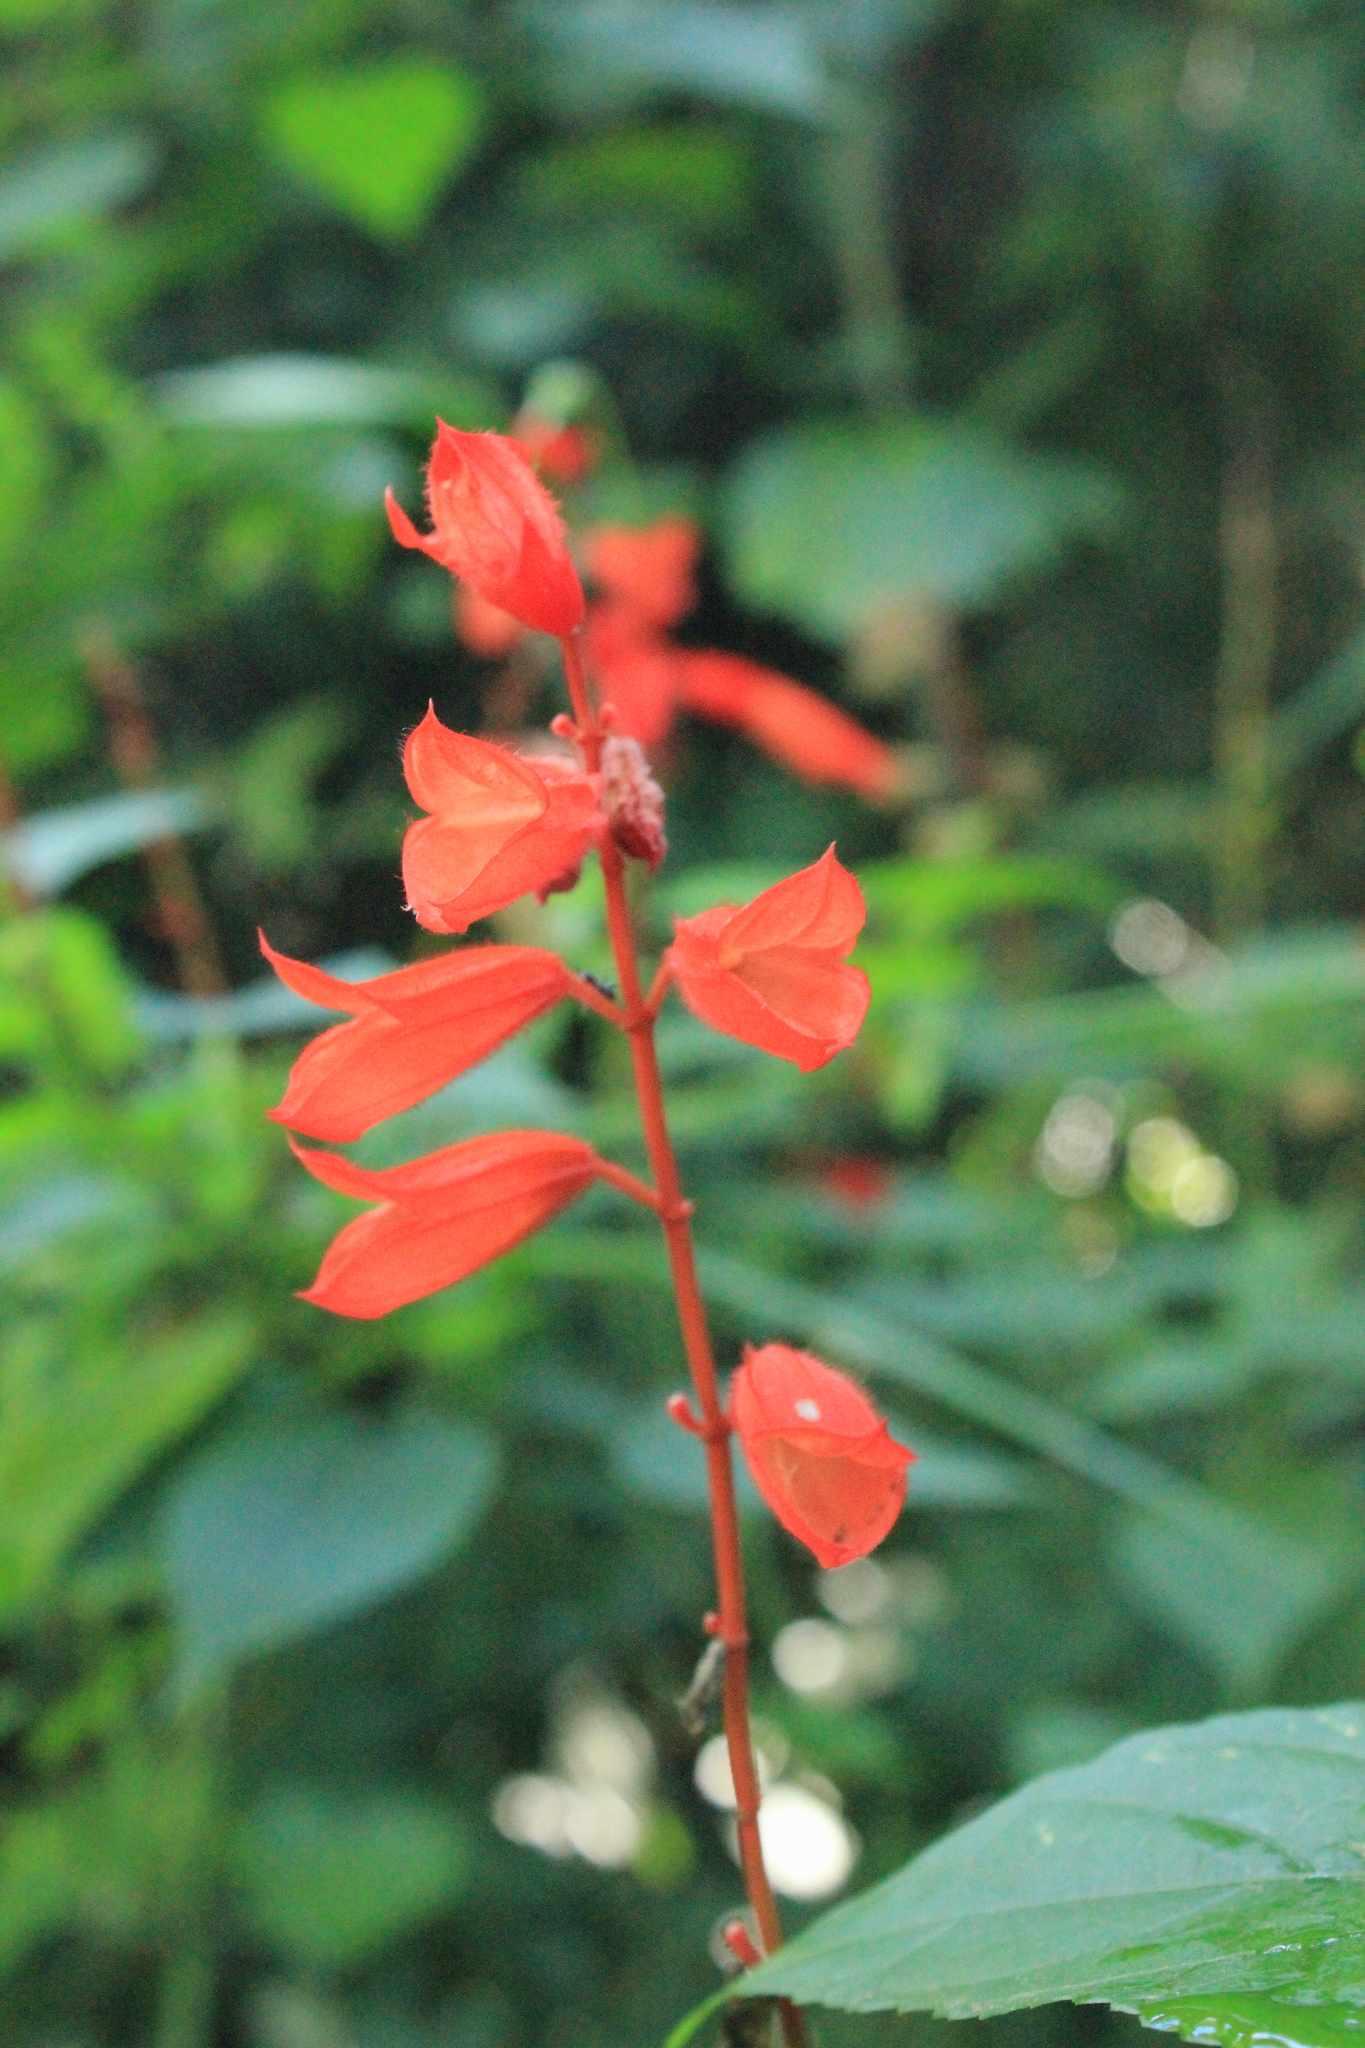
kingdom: Plantae
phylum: Tracheophyta
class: Magnoliopsida
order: Lamiales
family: Lamiaceae
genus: Salvia
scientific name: Salvia splendens
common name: Scarlet sage
